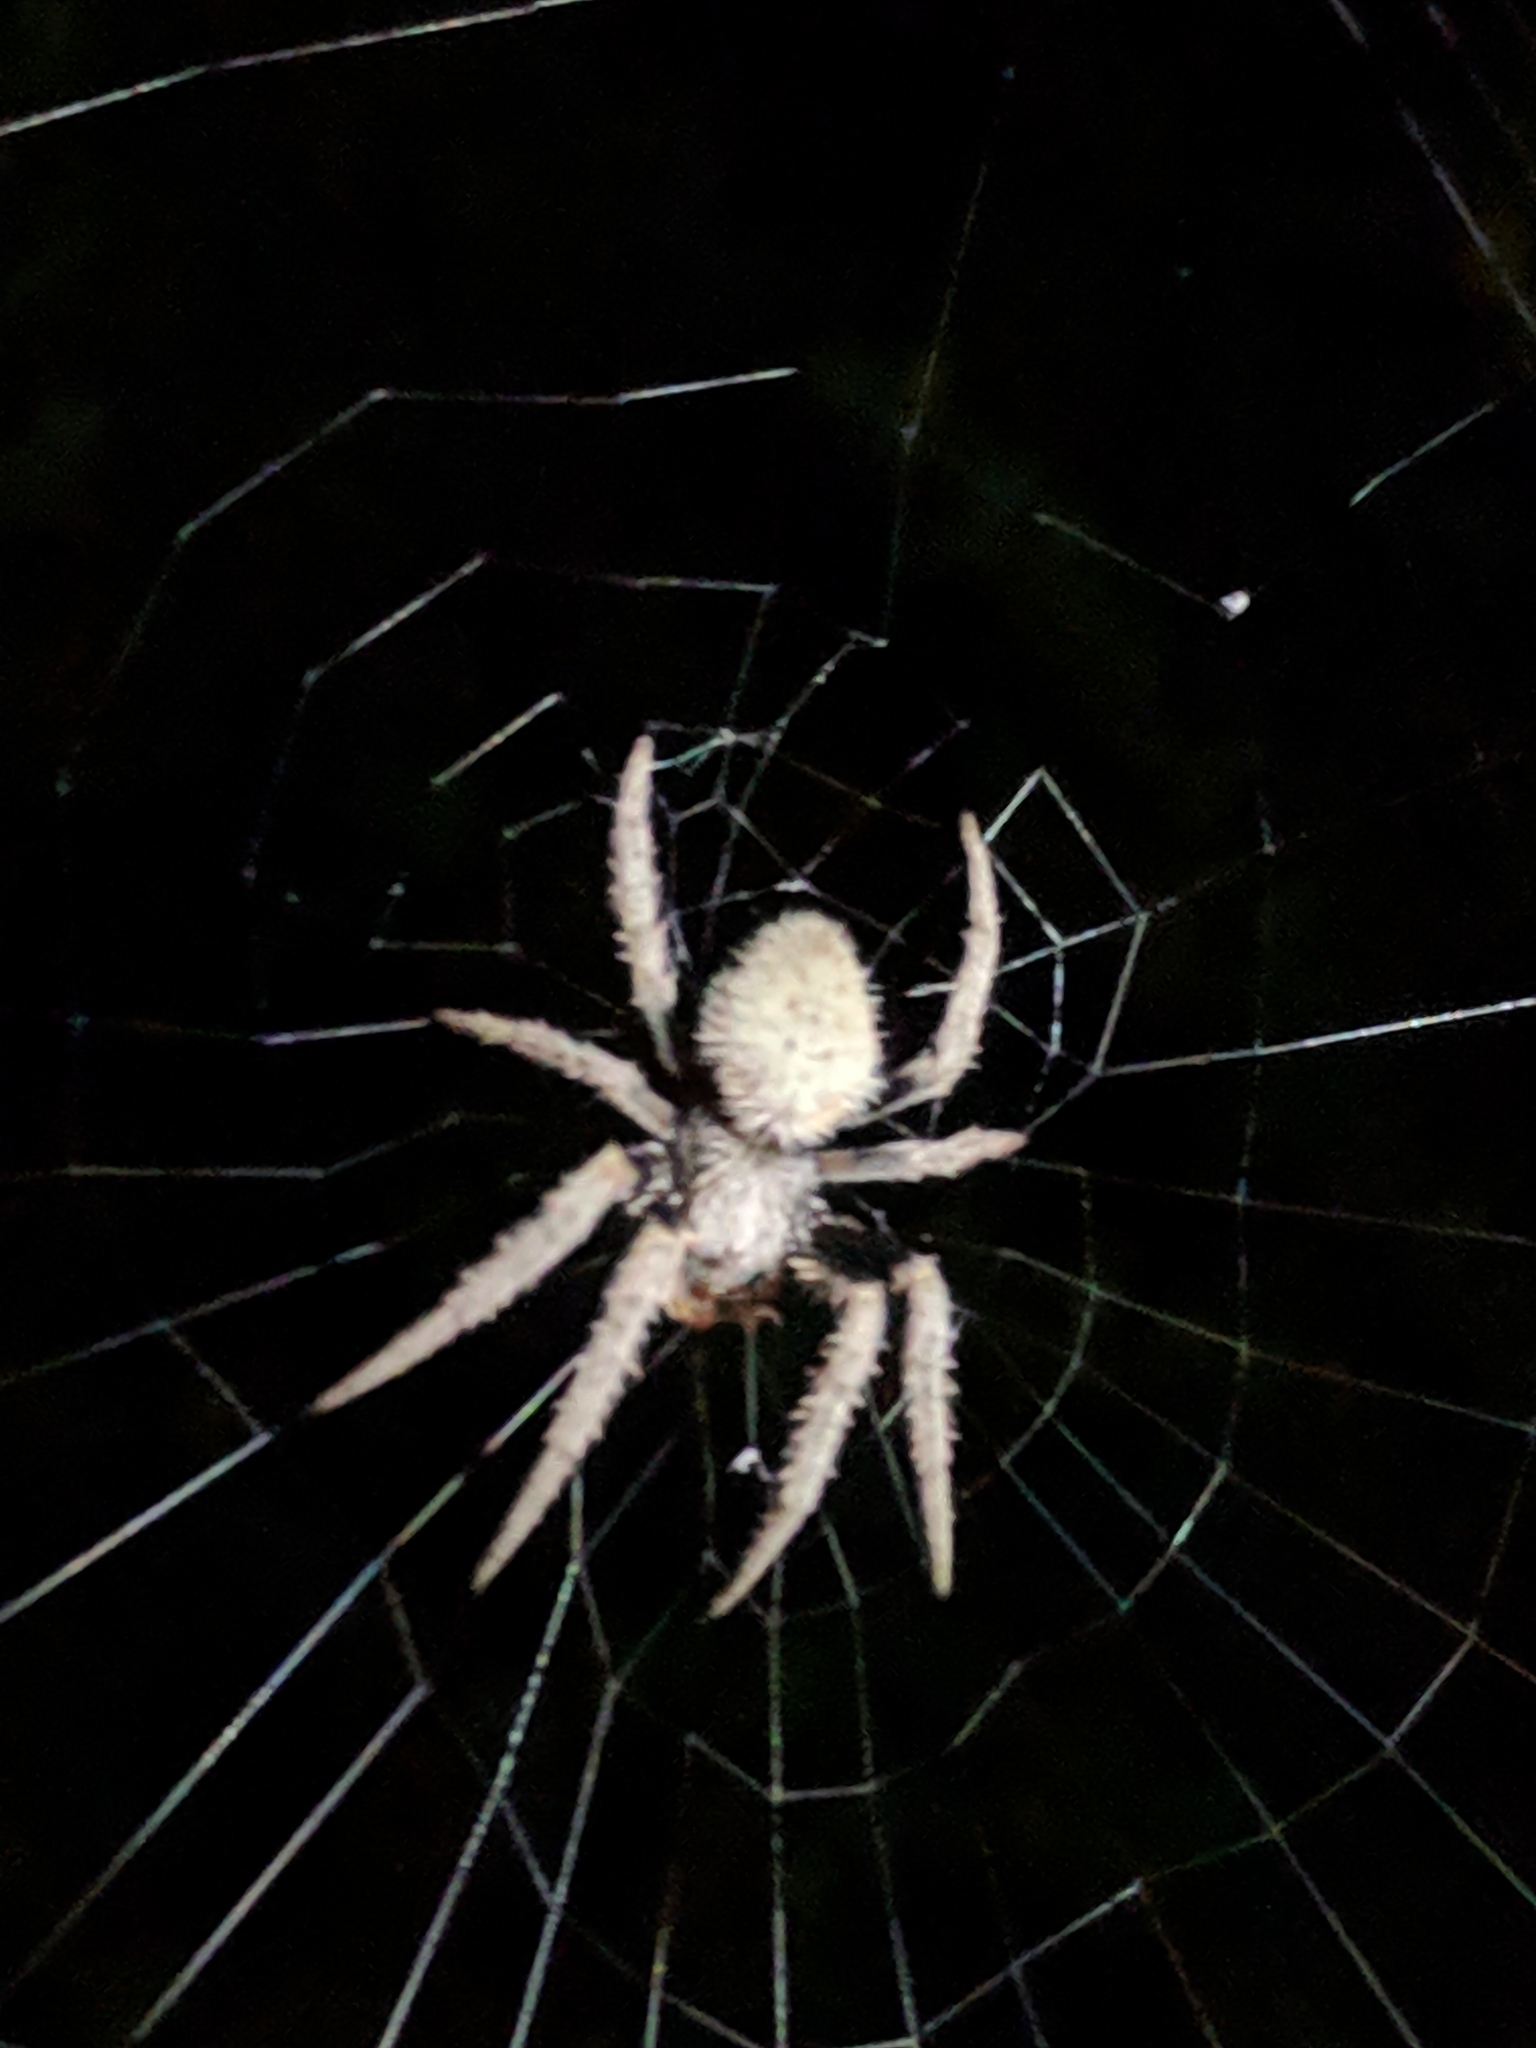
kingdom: Animalia
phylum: Arthropoda
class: Arachnida
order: Araneae
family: Araneidae
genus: Eriophora
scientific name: Eriophora ravilla
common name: Orb weavers
